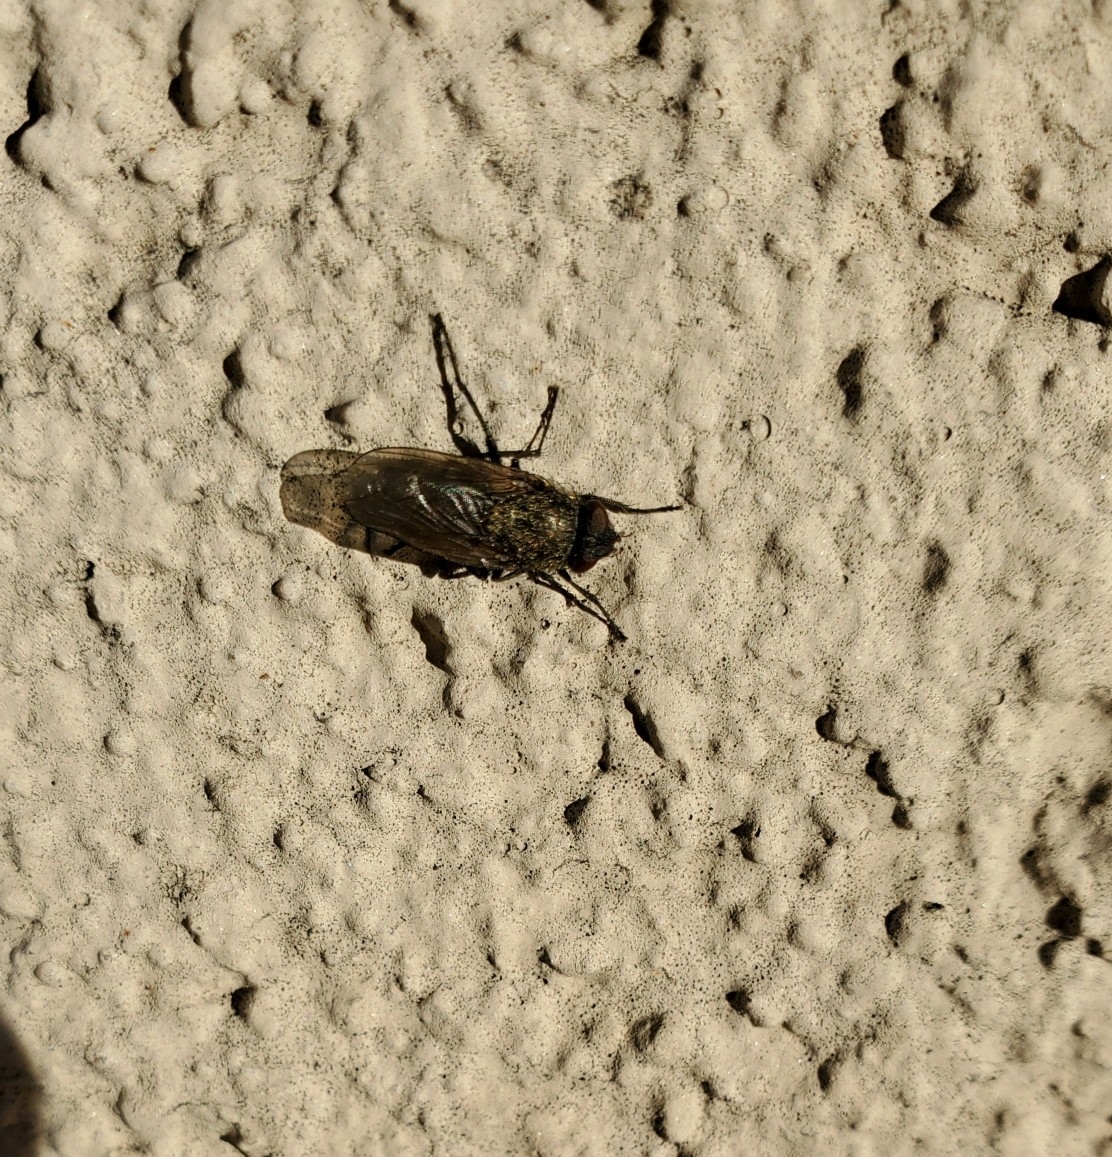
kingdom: Animalia
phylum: Arthropoda
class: Insecta
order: Diptera
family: Polleniidae
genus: Pollenia
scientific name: Pollenia
